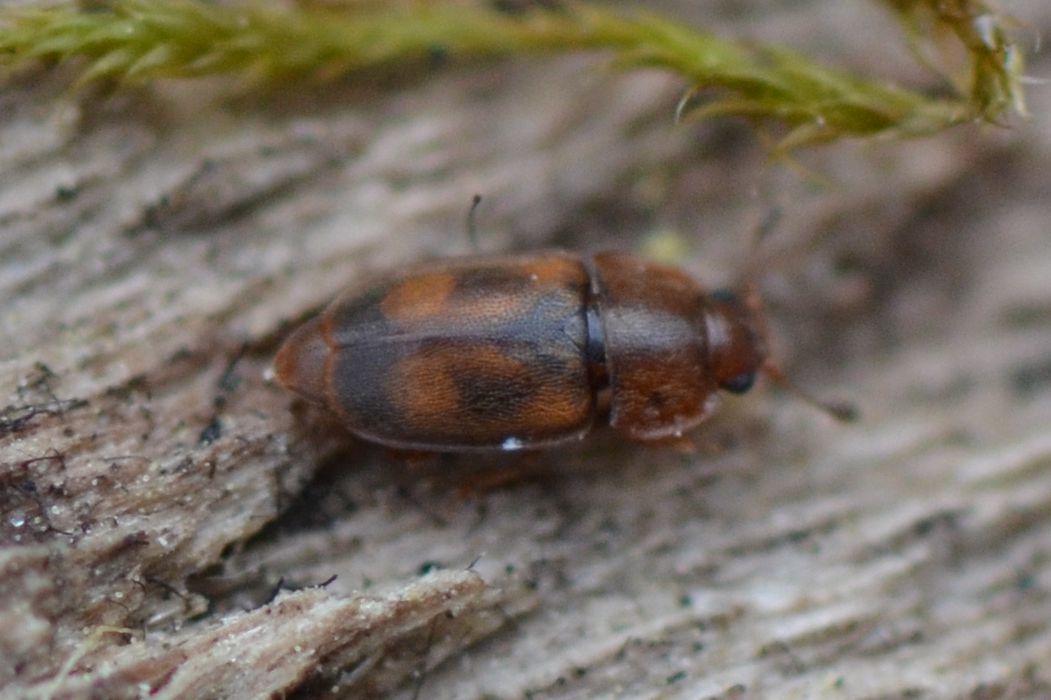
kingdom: Animalia
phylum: Arthropoda
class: Insecta
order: Coleoptera
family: Nitidulidae
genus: Epuraea
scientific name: Epuraea unicolor
